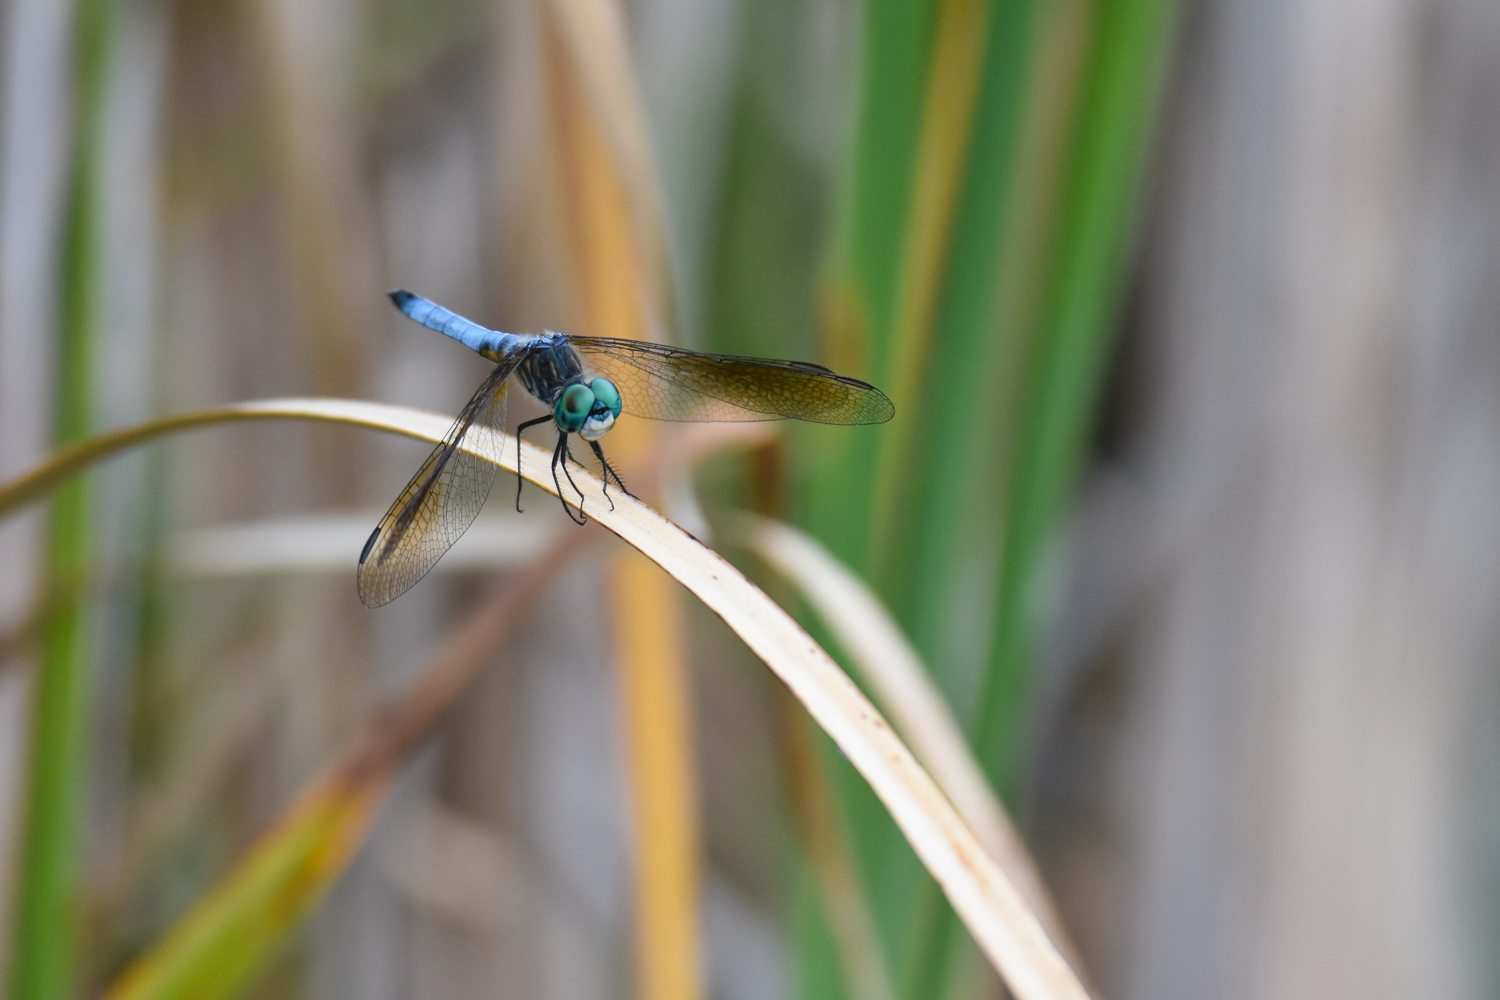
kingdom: Animalia
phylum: Arthropoda
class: Insecta
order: Odonata
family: Libellulidae
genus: Pachydiplax
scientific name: Pachydiplax longipennis
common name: Blue dasher
